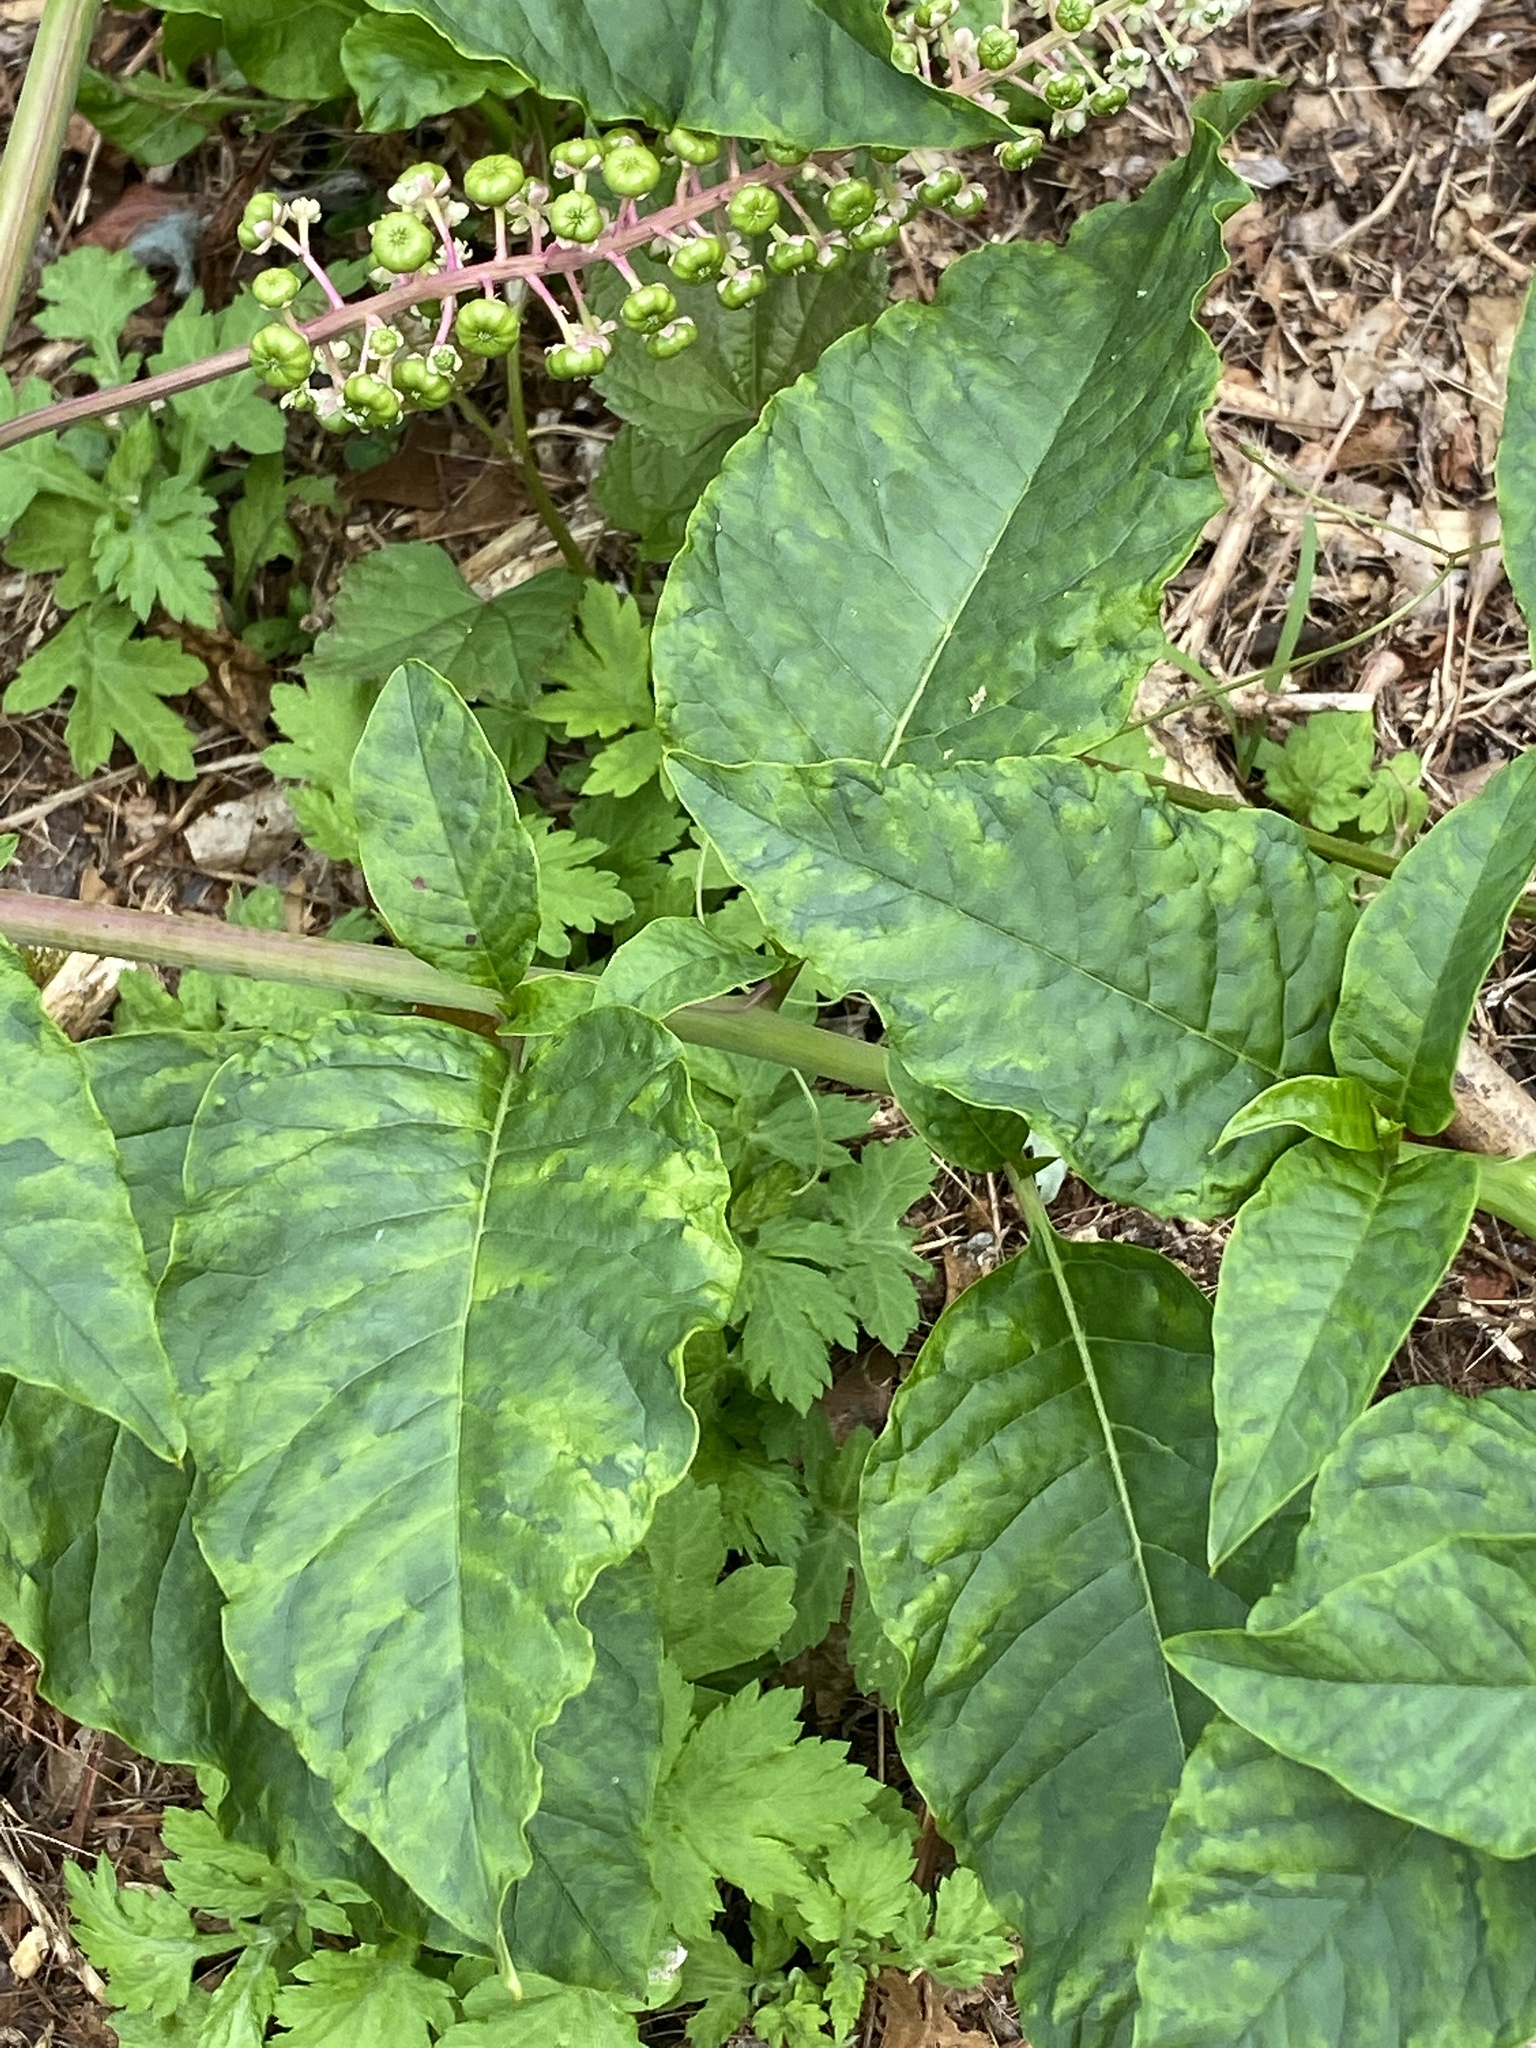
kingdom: Viruses
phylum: Pisuviricota
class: Stelpaviricetes
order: Patatavirales
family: Potyviridae
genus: Potyvirus
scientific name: Potyvirus Pokeweed mosaic virus
